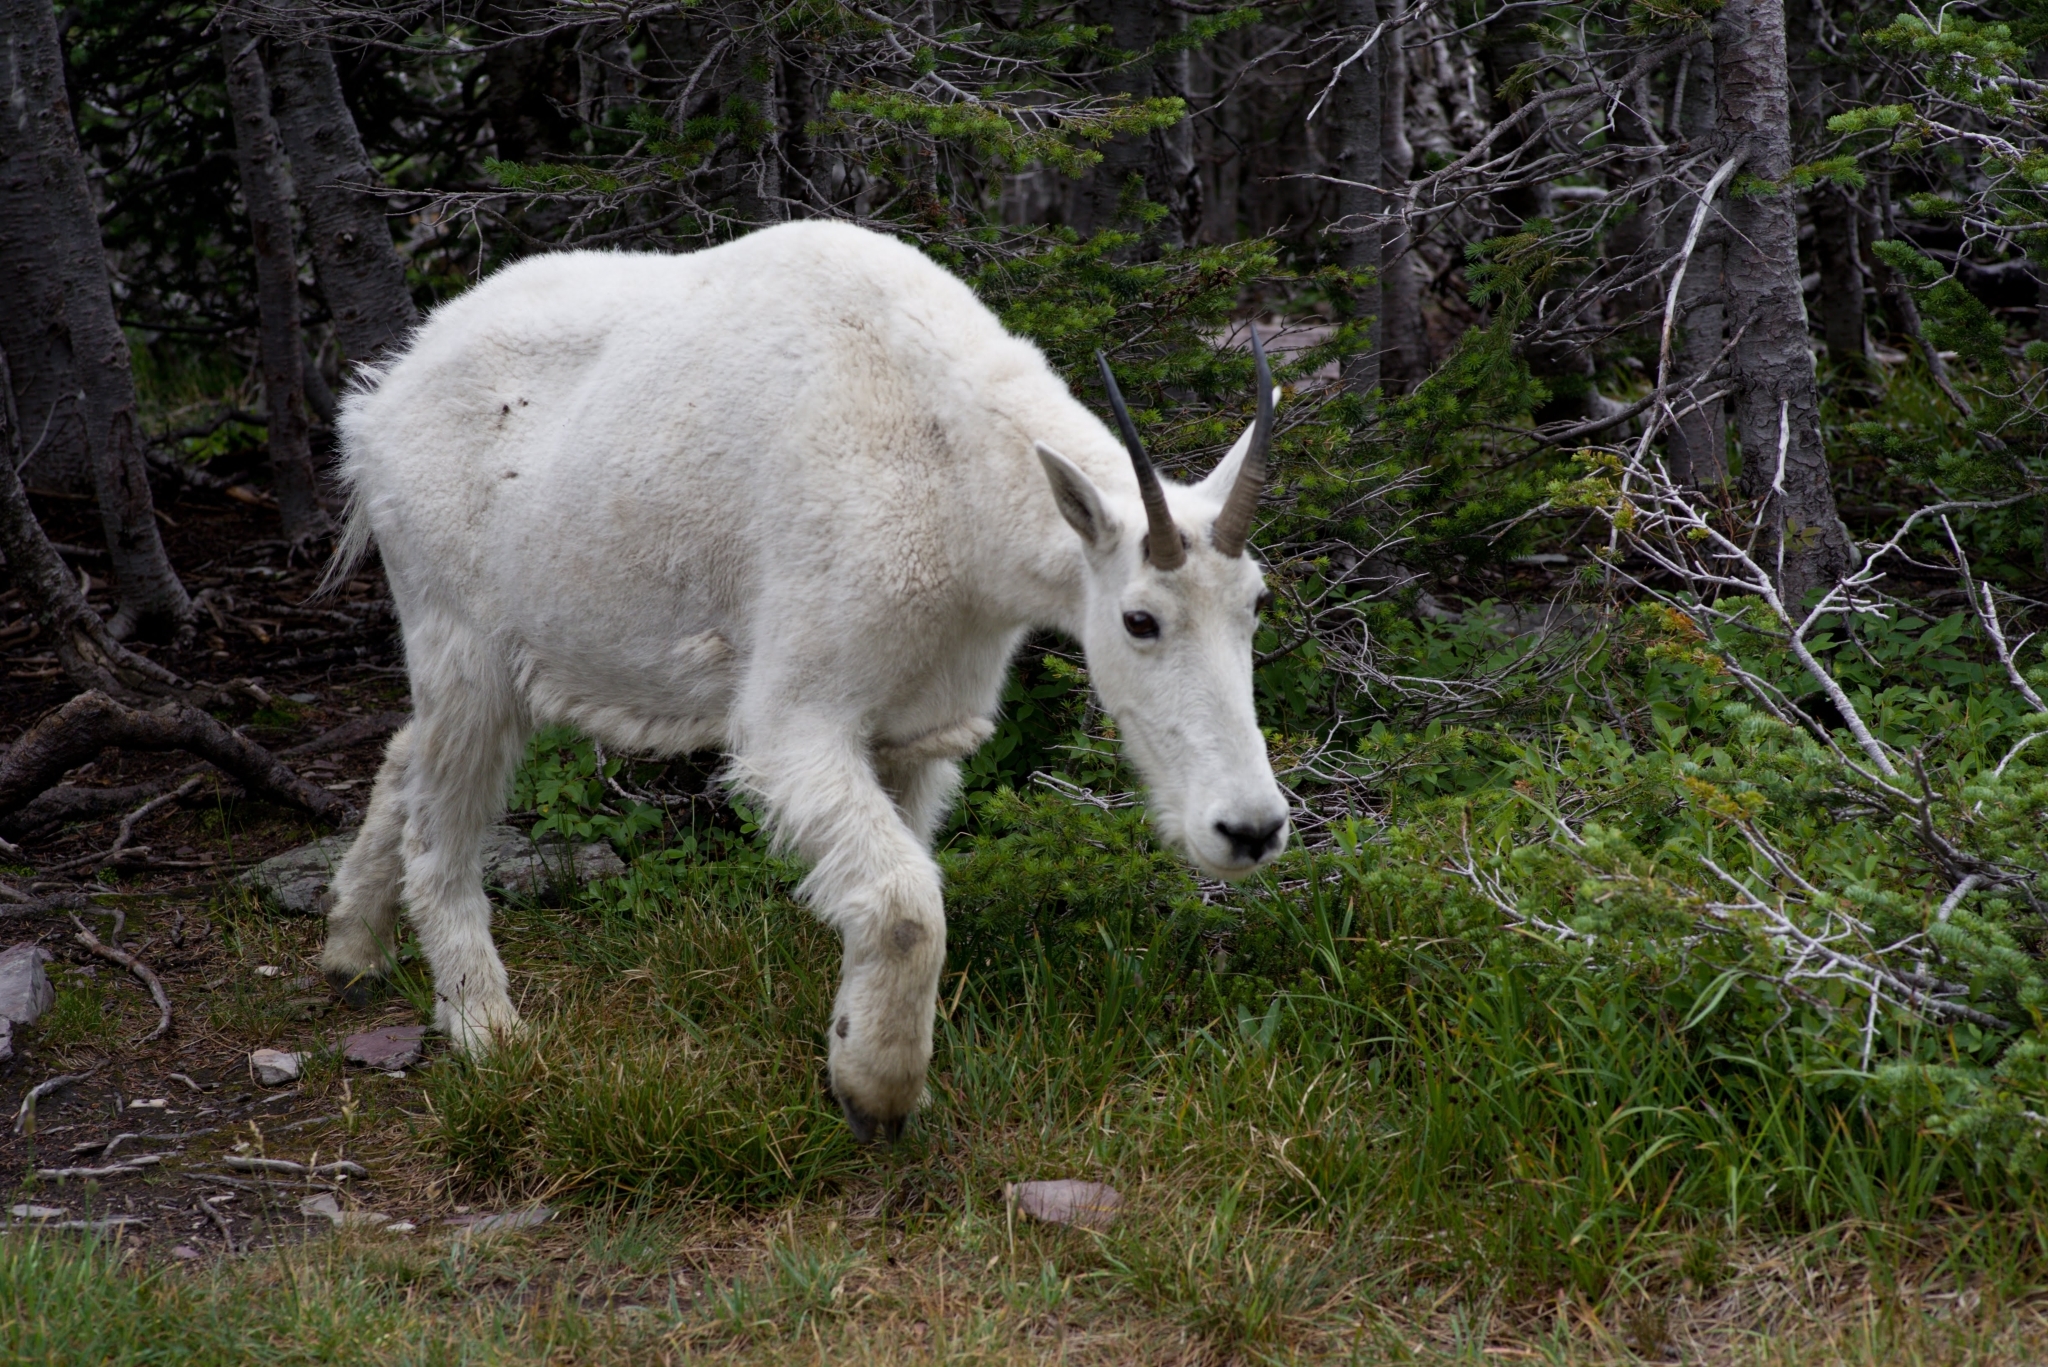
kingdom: Animalia
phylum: Chordata
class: Mammalia
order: Artiodactyla
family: Bovidae
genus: Oreamnos
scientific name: Oreamnos americanus
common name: Mountain goat
